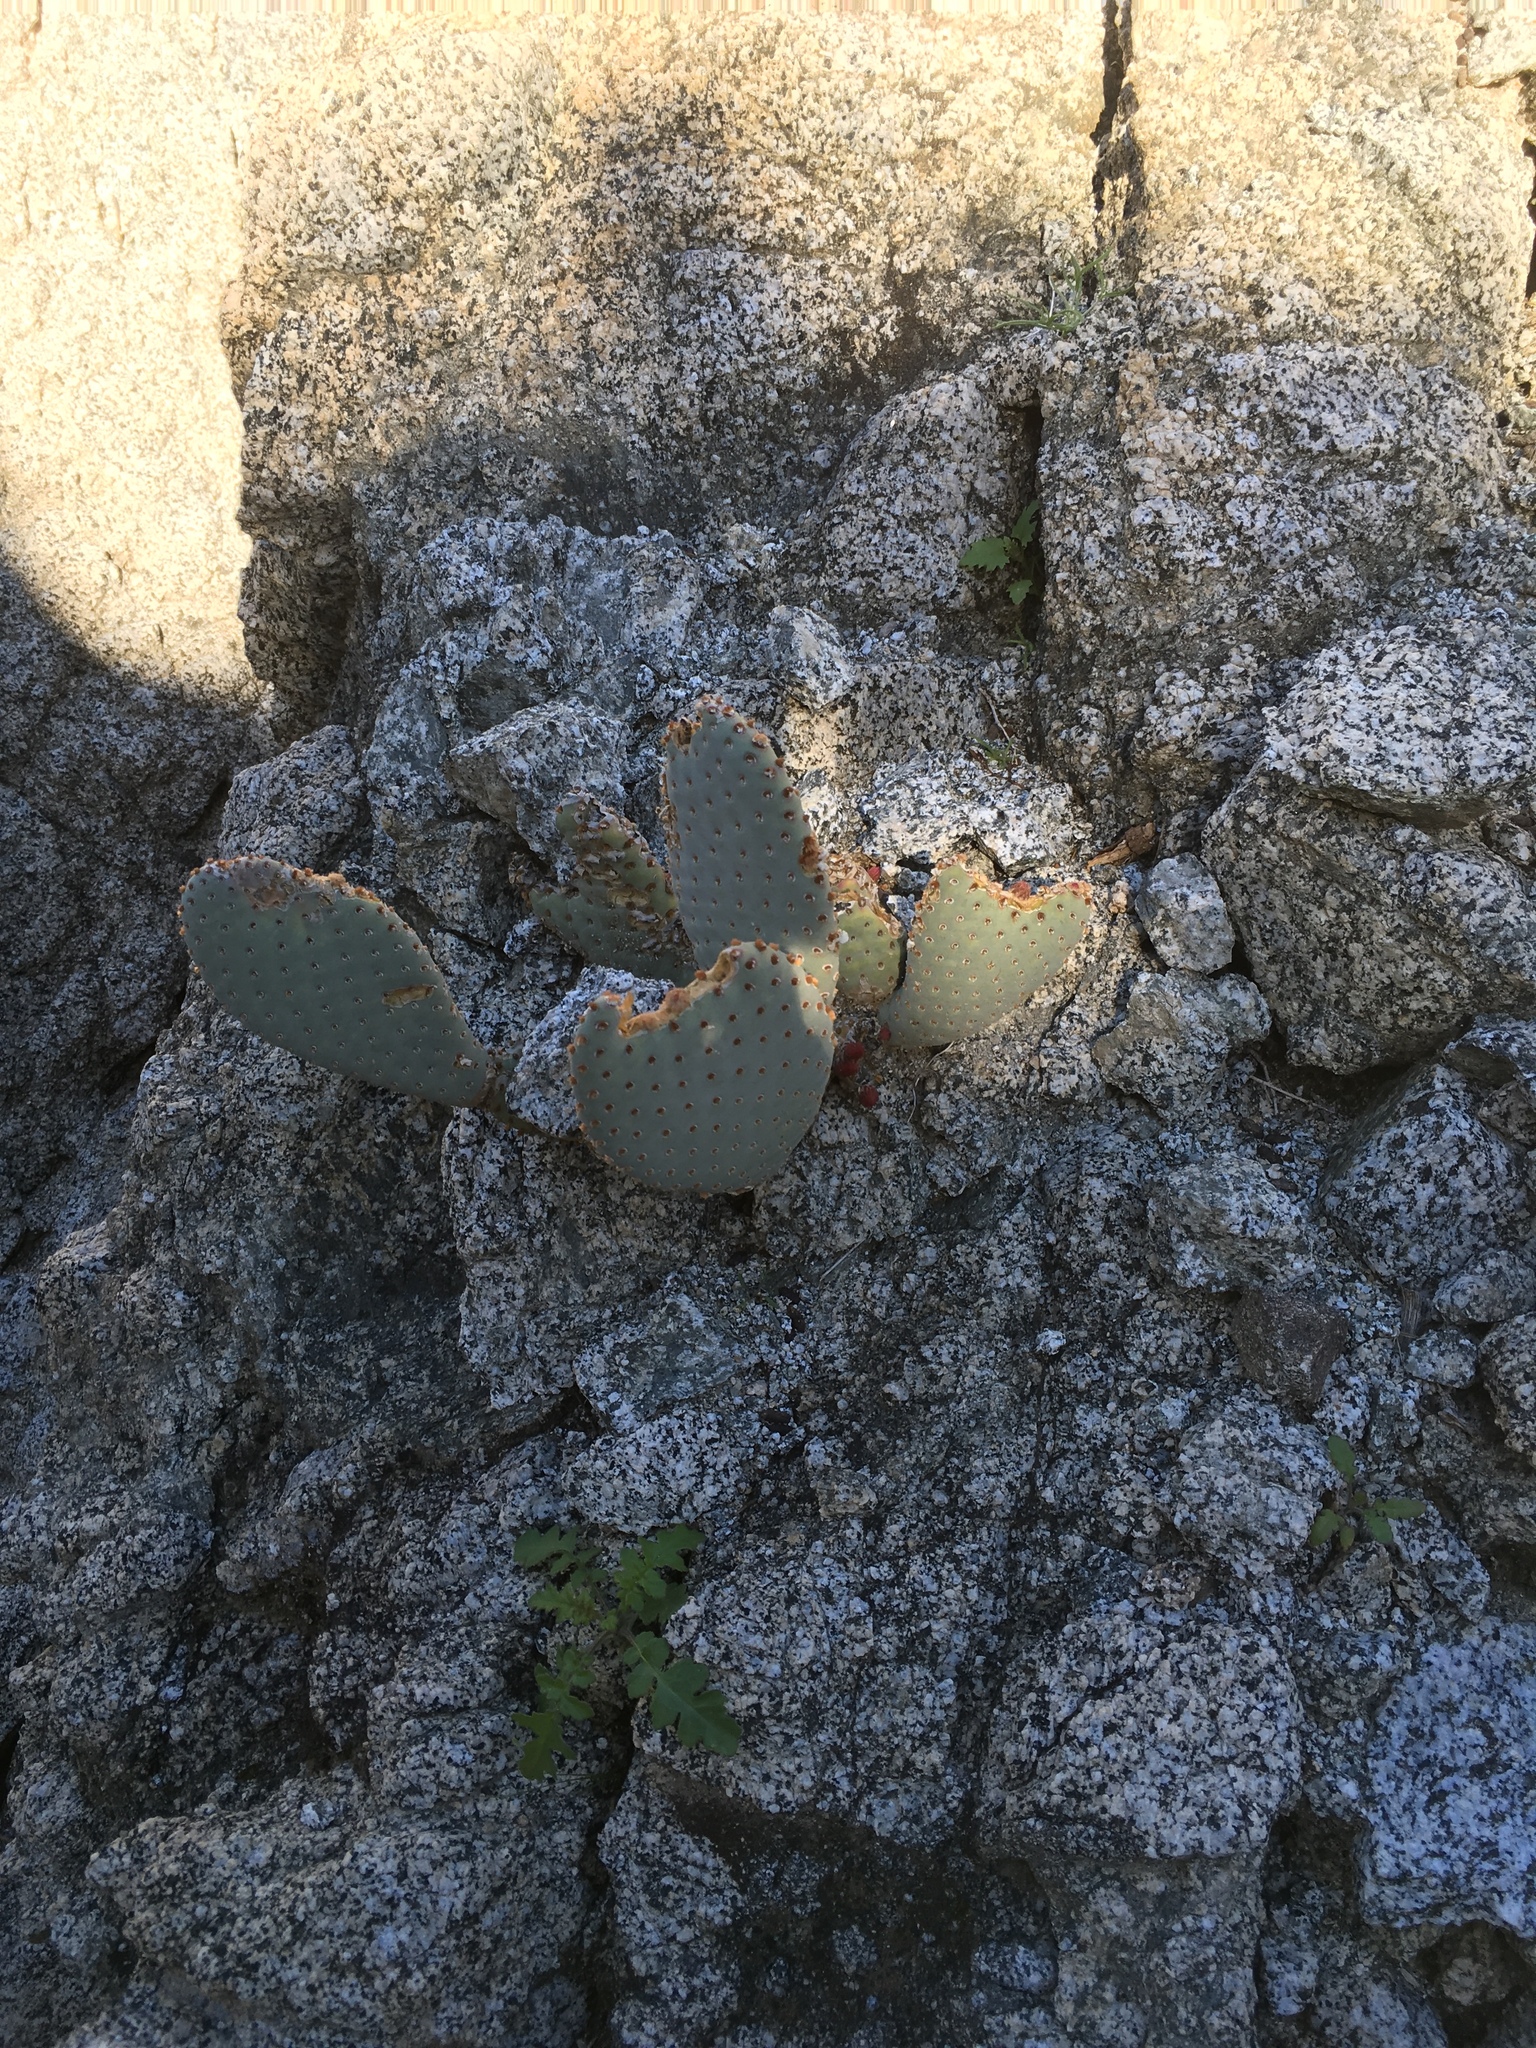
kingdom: Plantae
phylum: Tracheophyta
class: Magnoliopsida
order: Caryophyllales
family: Cactaceae
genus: Opuntia
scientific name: Opuntia basilaris
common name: Beavertail prickly-pear
